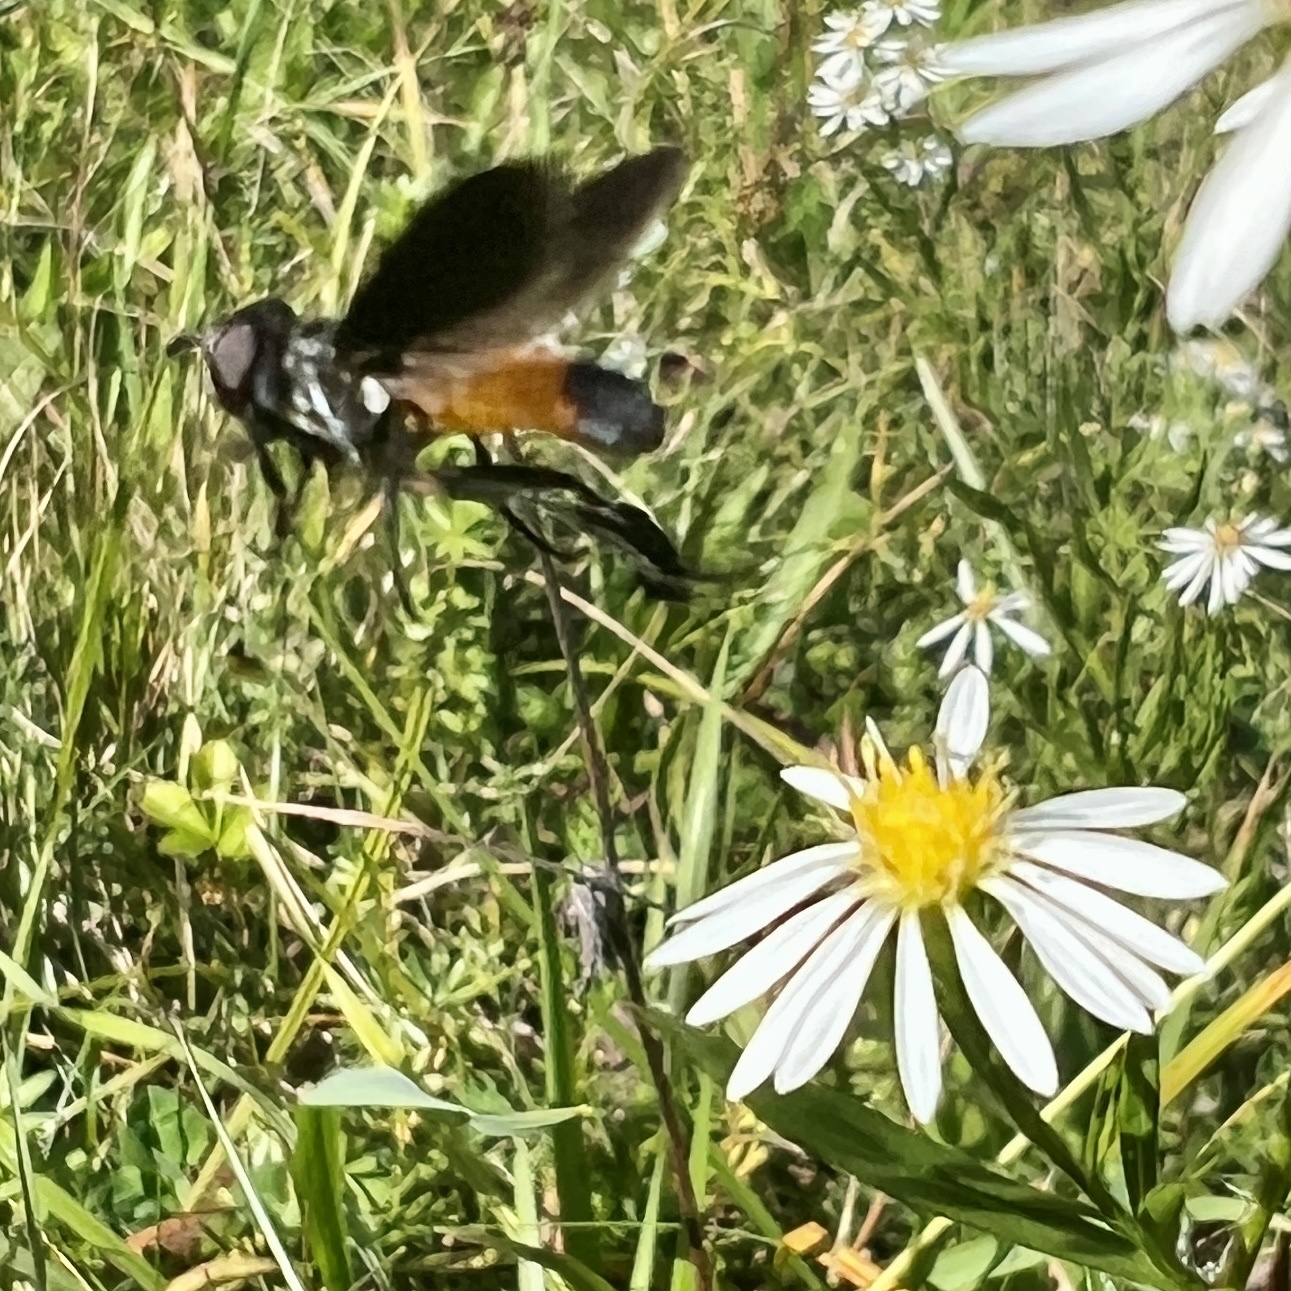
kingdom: Animalia
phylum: Arthropoda
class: Insecta
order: Diptera
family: Tachinidae
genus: Trichopoda
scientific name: Trichopoda pennipes
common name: Tachinid fly
